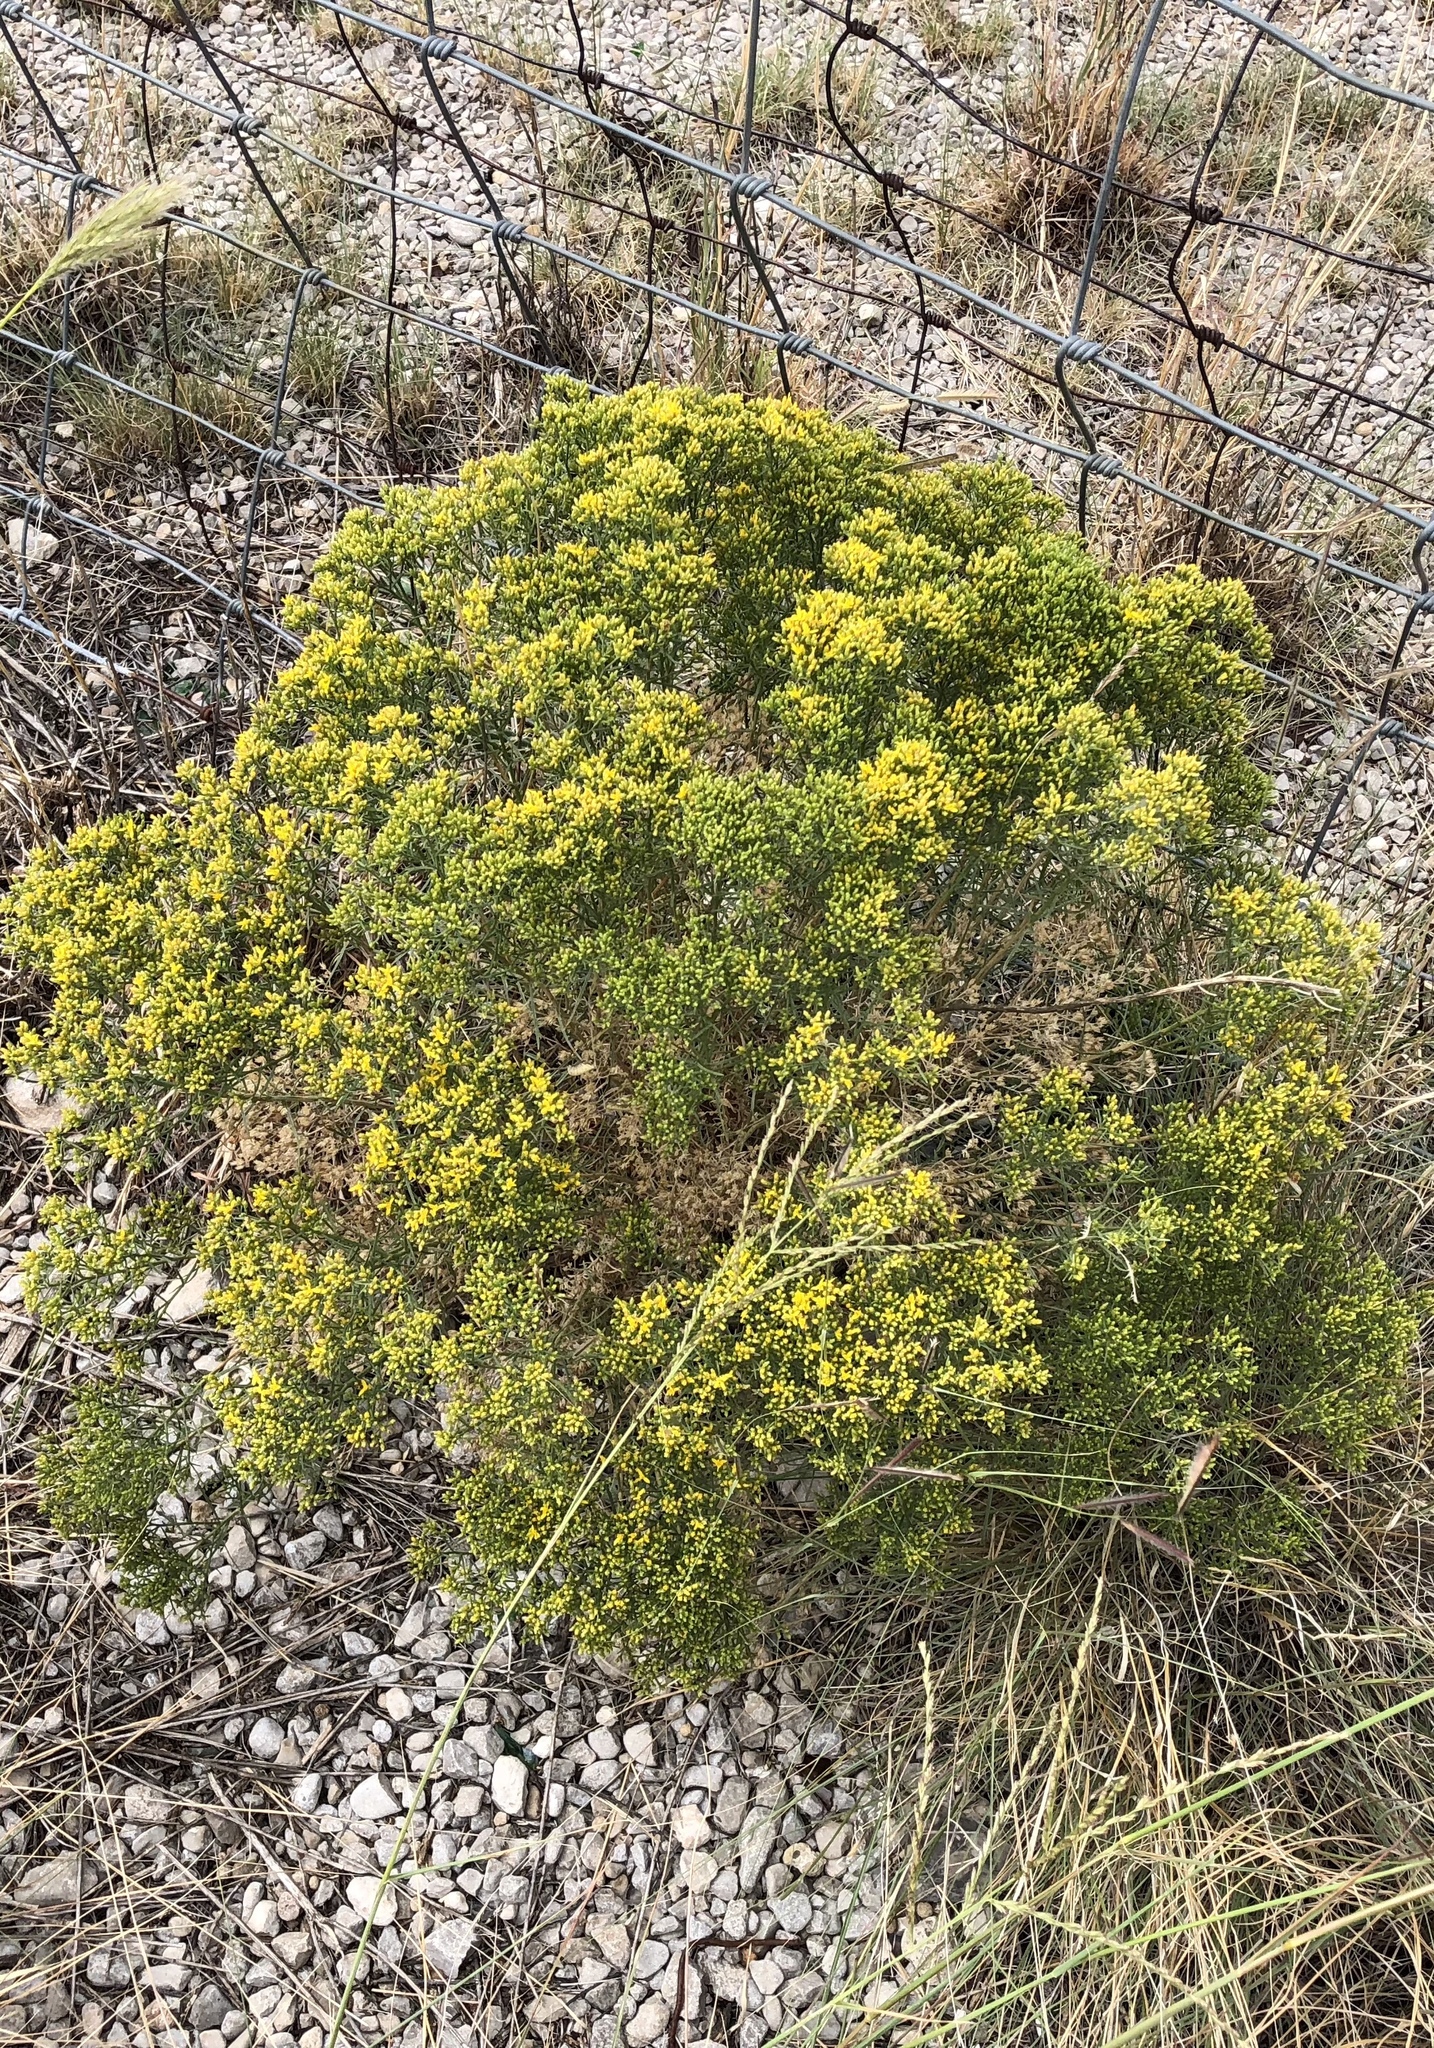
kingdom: Plantae
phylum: Tracheophyta
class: Magnoliopsida
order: Asterales
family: Asteraceae
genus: Gutierrezia
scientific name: Gutierrezia sarothrae
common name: Broom snakeweed
